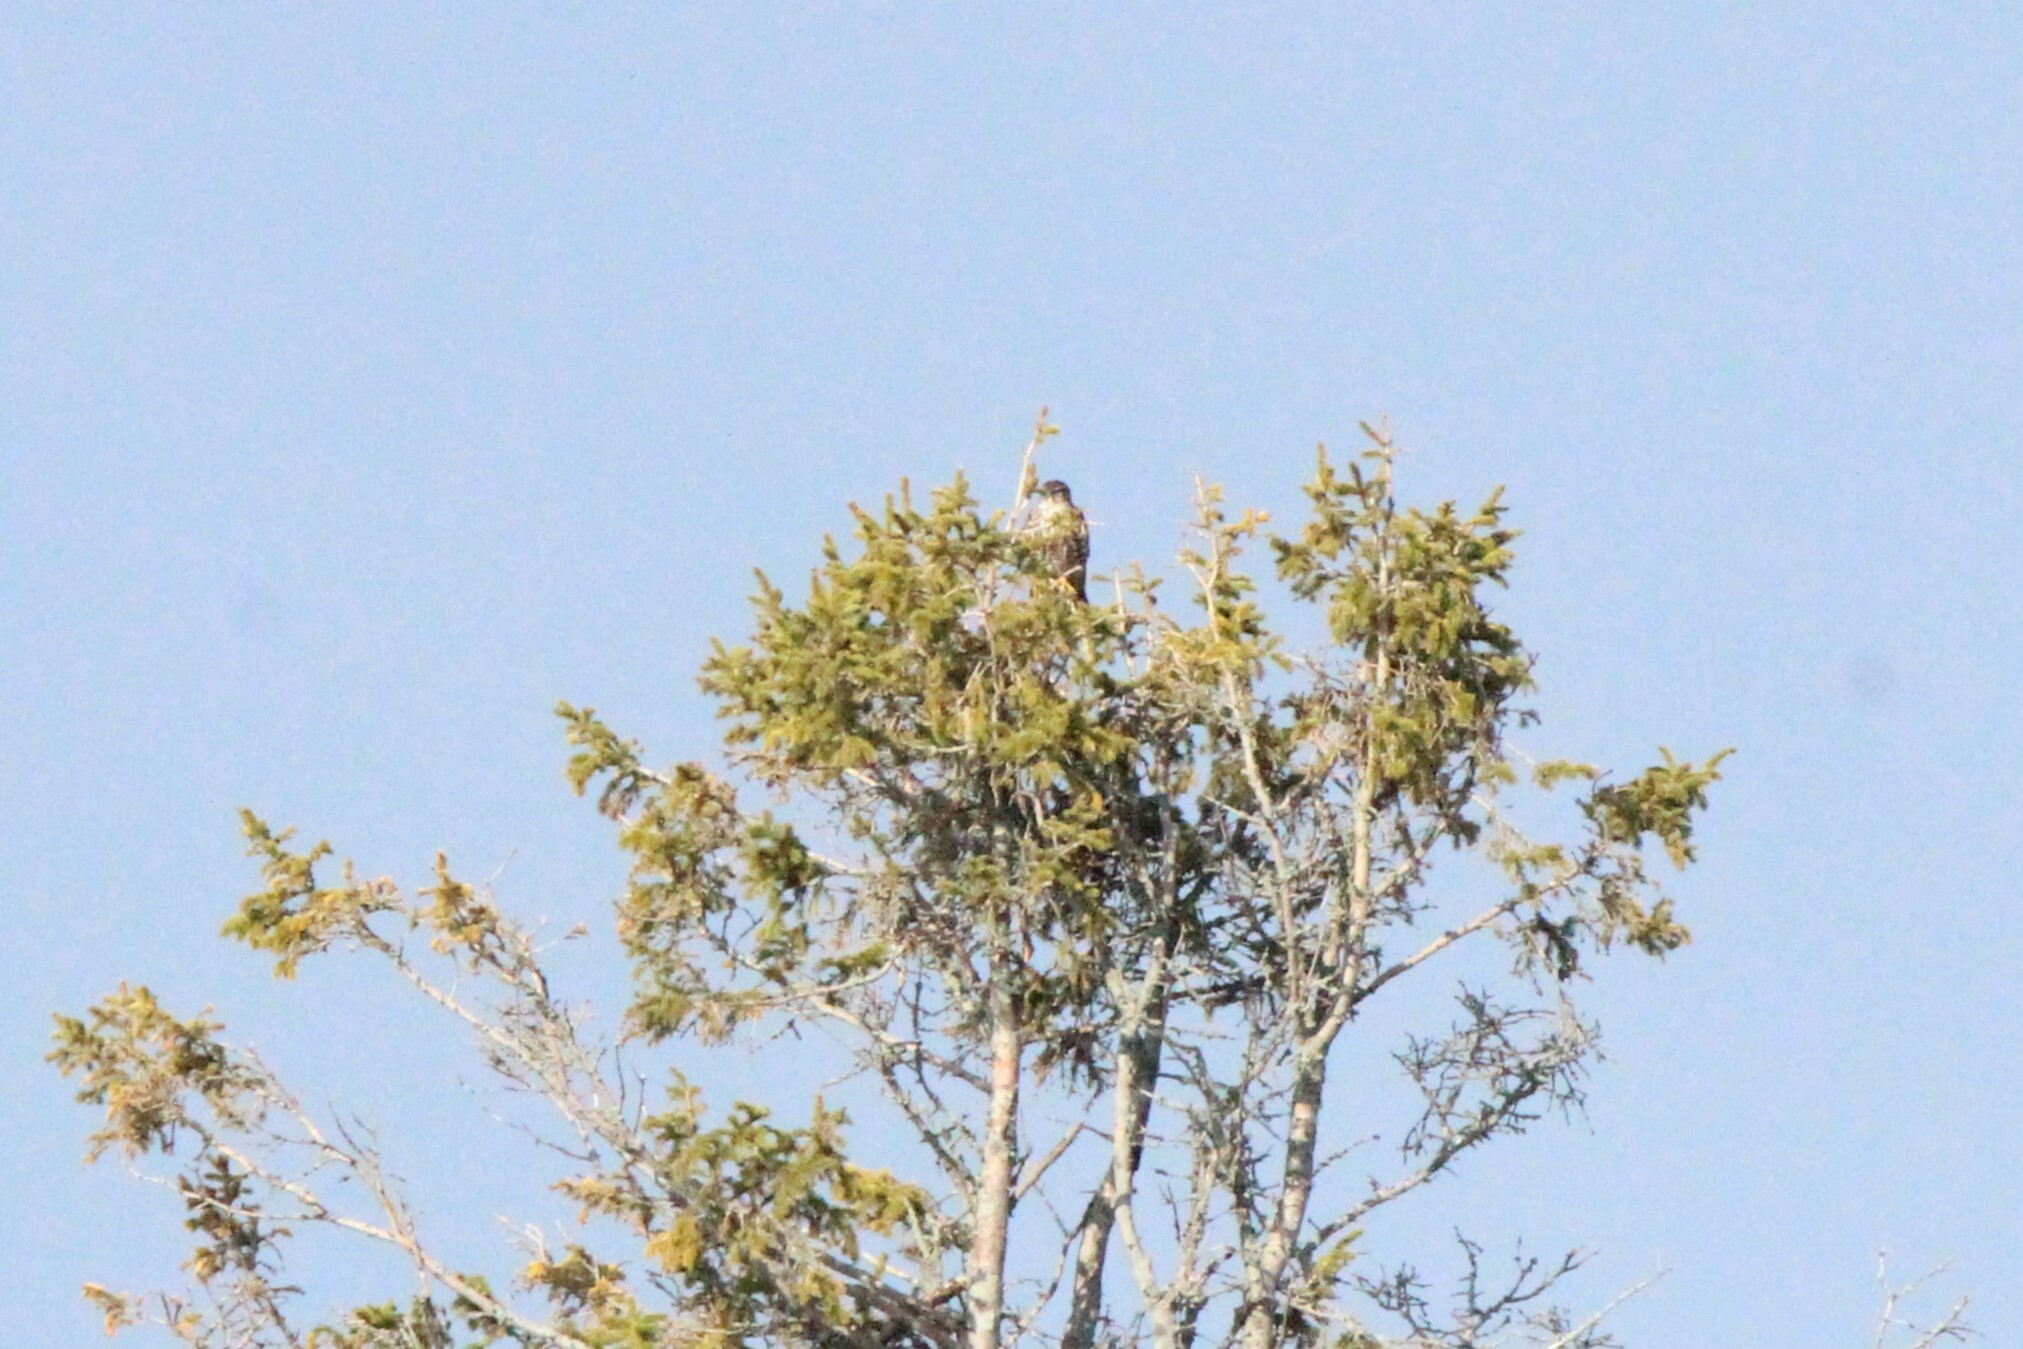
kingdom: Animalia
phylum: Chordata
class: Aves
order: Falconiformes
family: Falconidae
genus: Falco
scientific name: Falco columbarius
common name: Merlin
